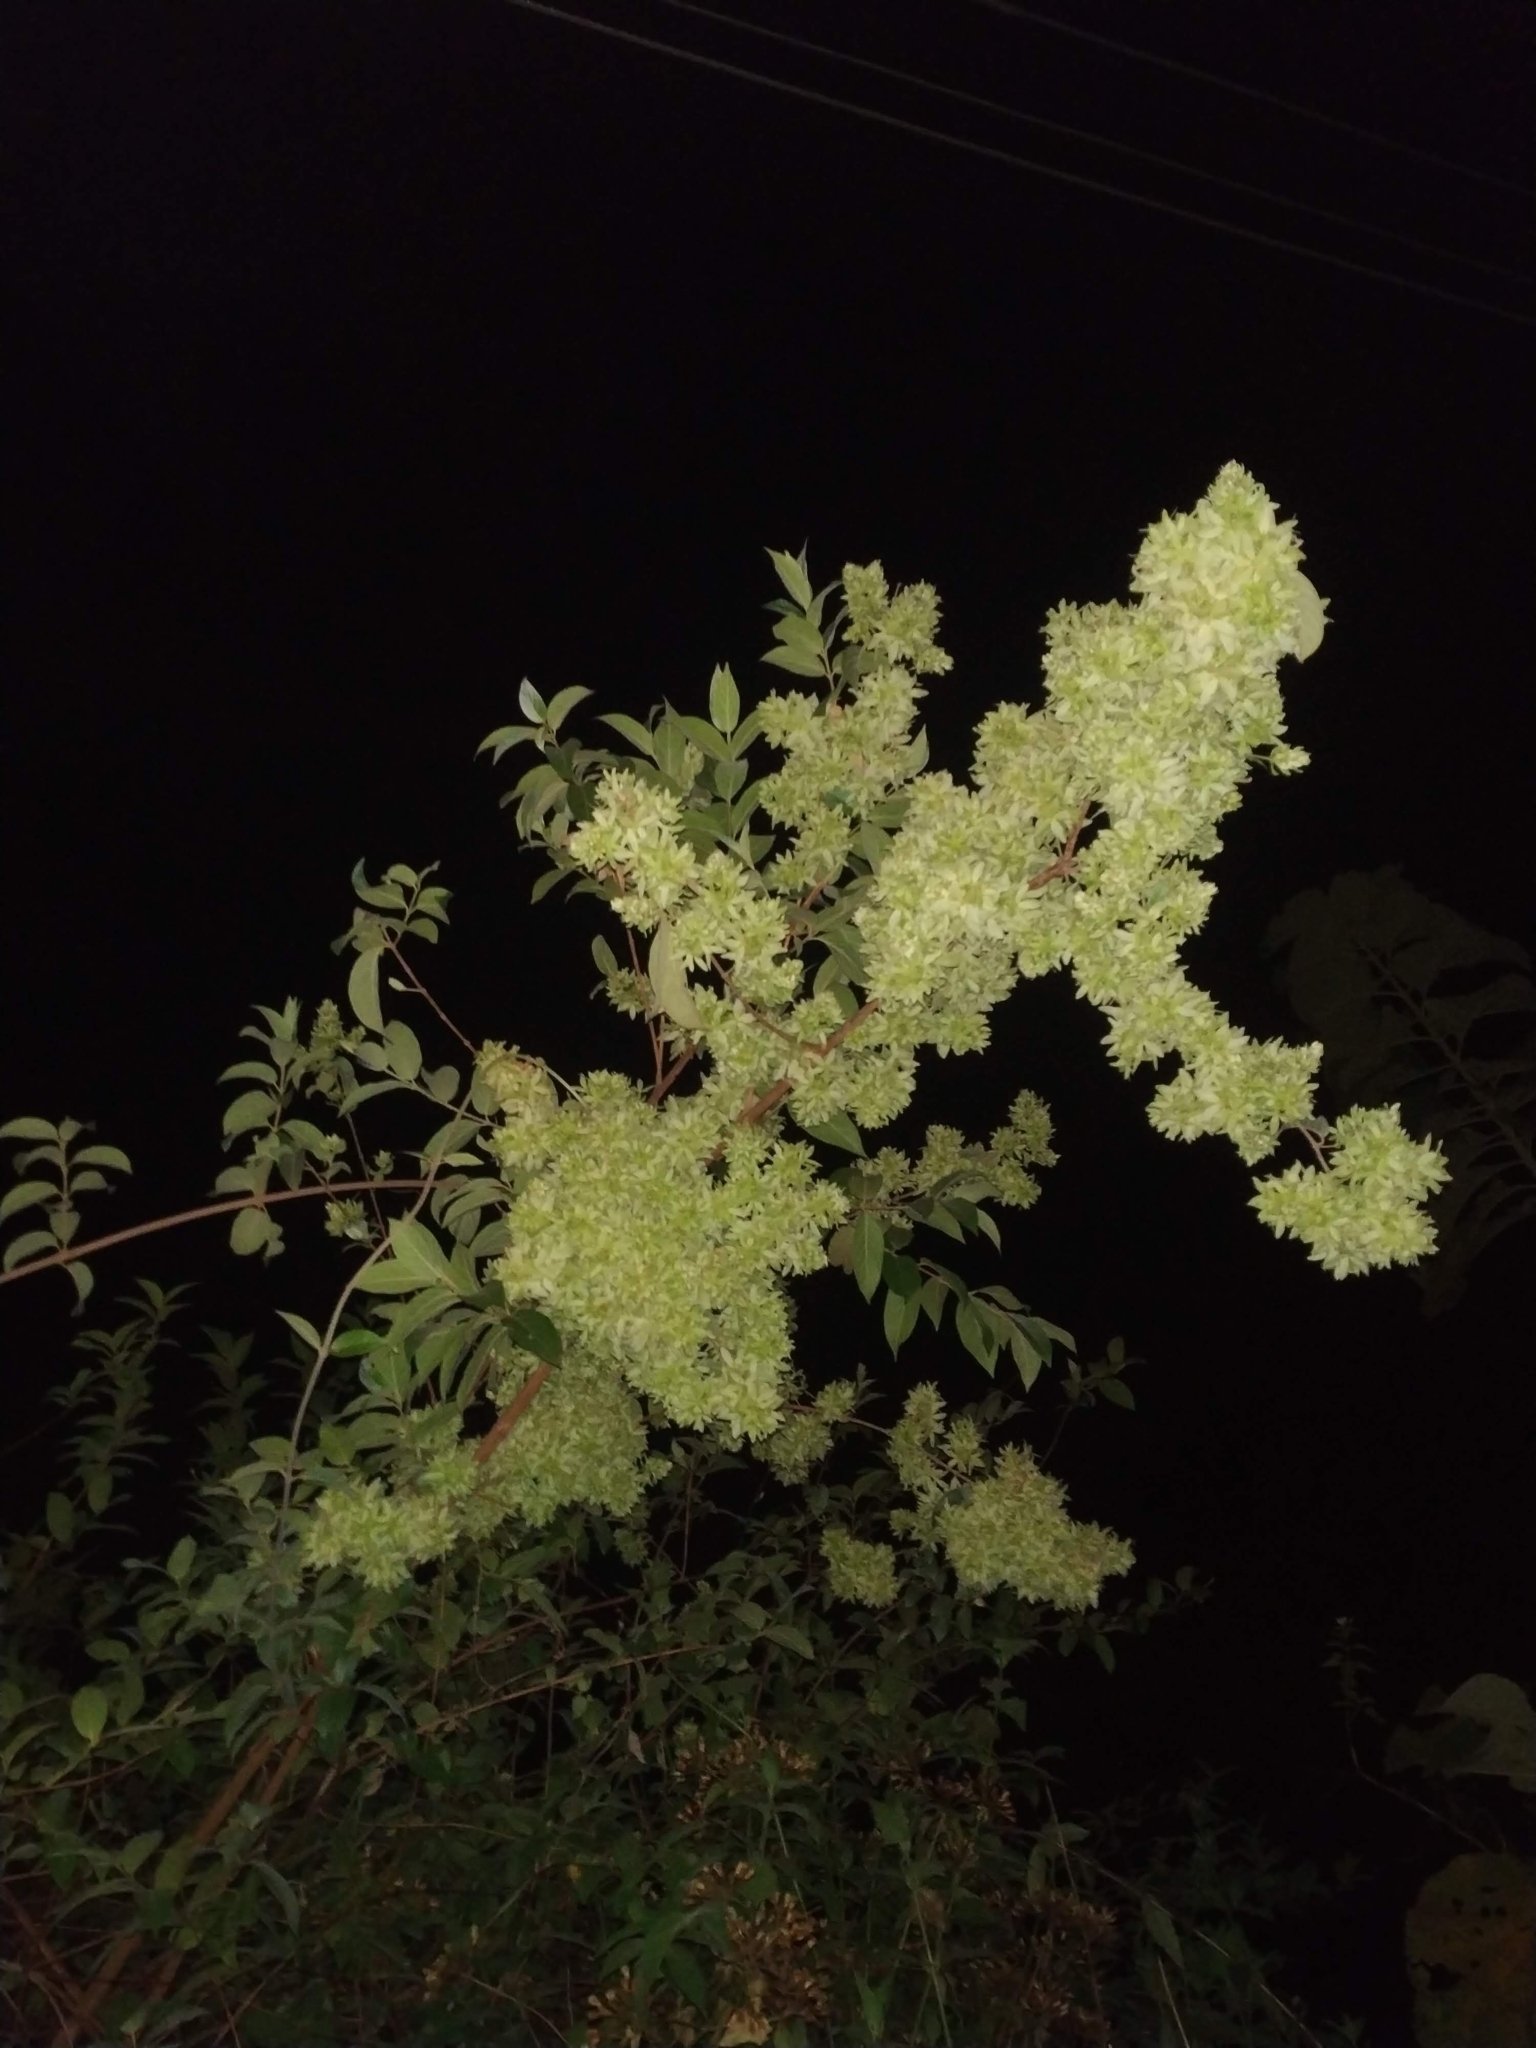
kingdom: Plantae
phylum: Tracheophyta
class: Magnoliopsida
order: Myrtales
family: Combretaceae
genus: Getonia
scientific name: Getonia floribunda
